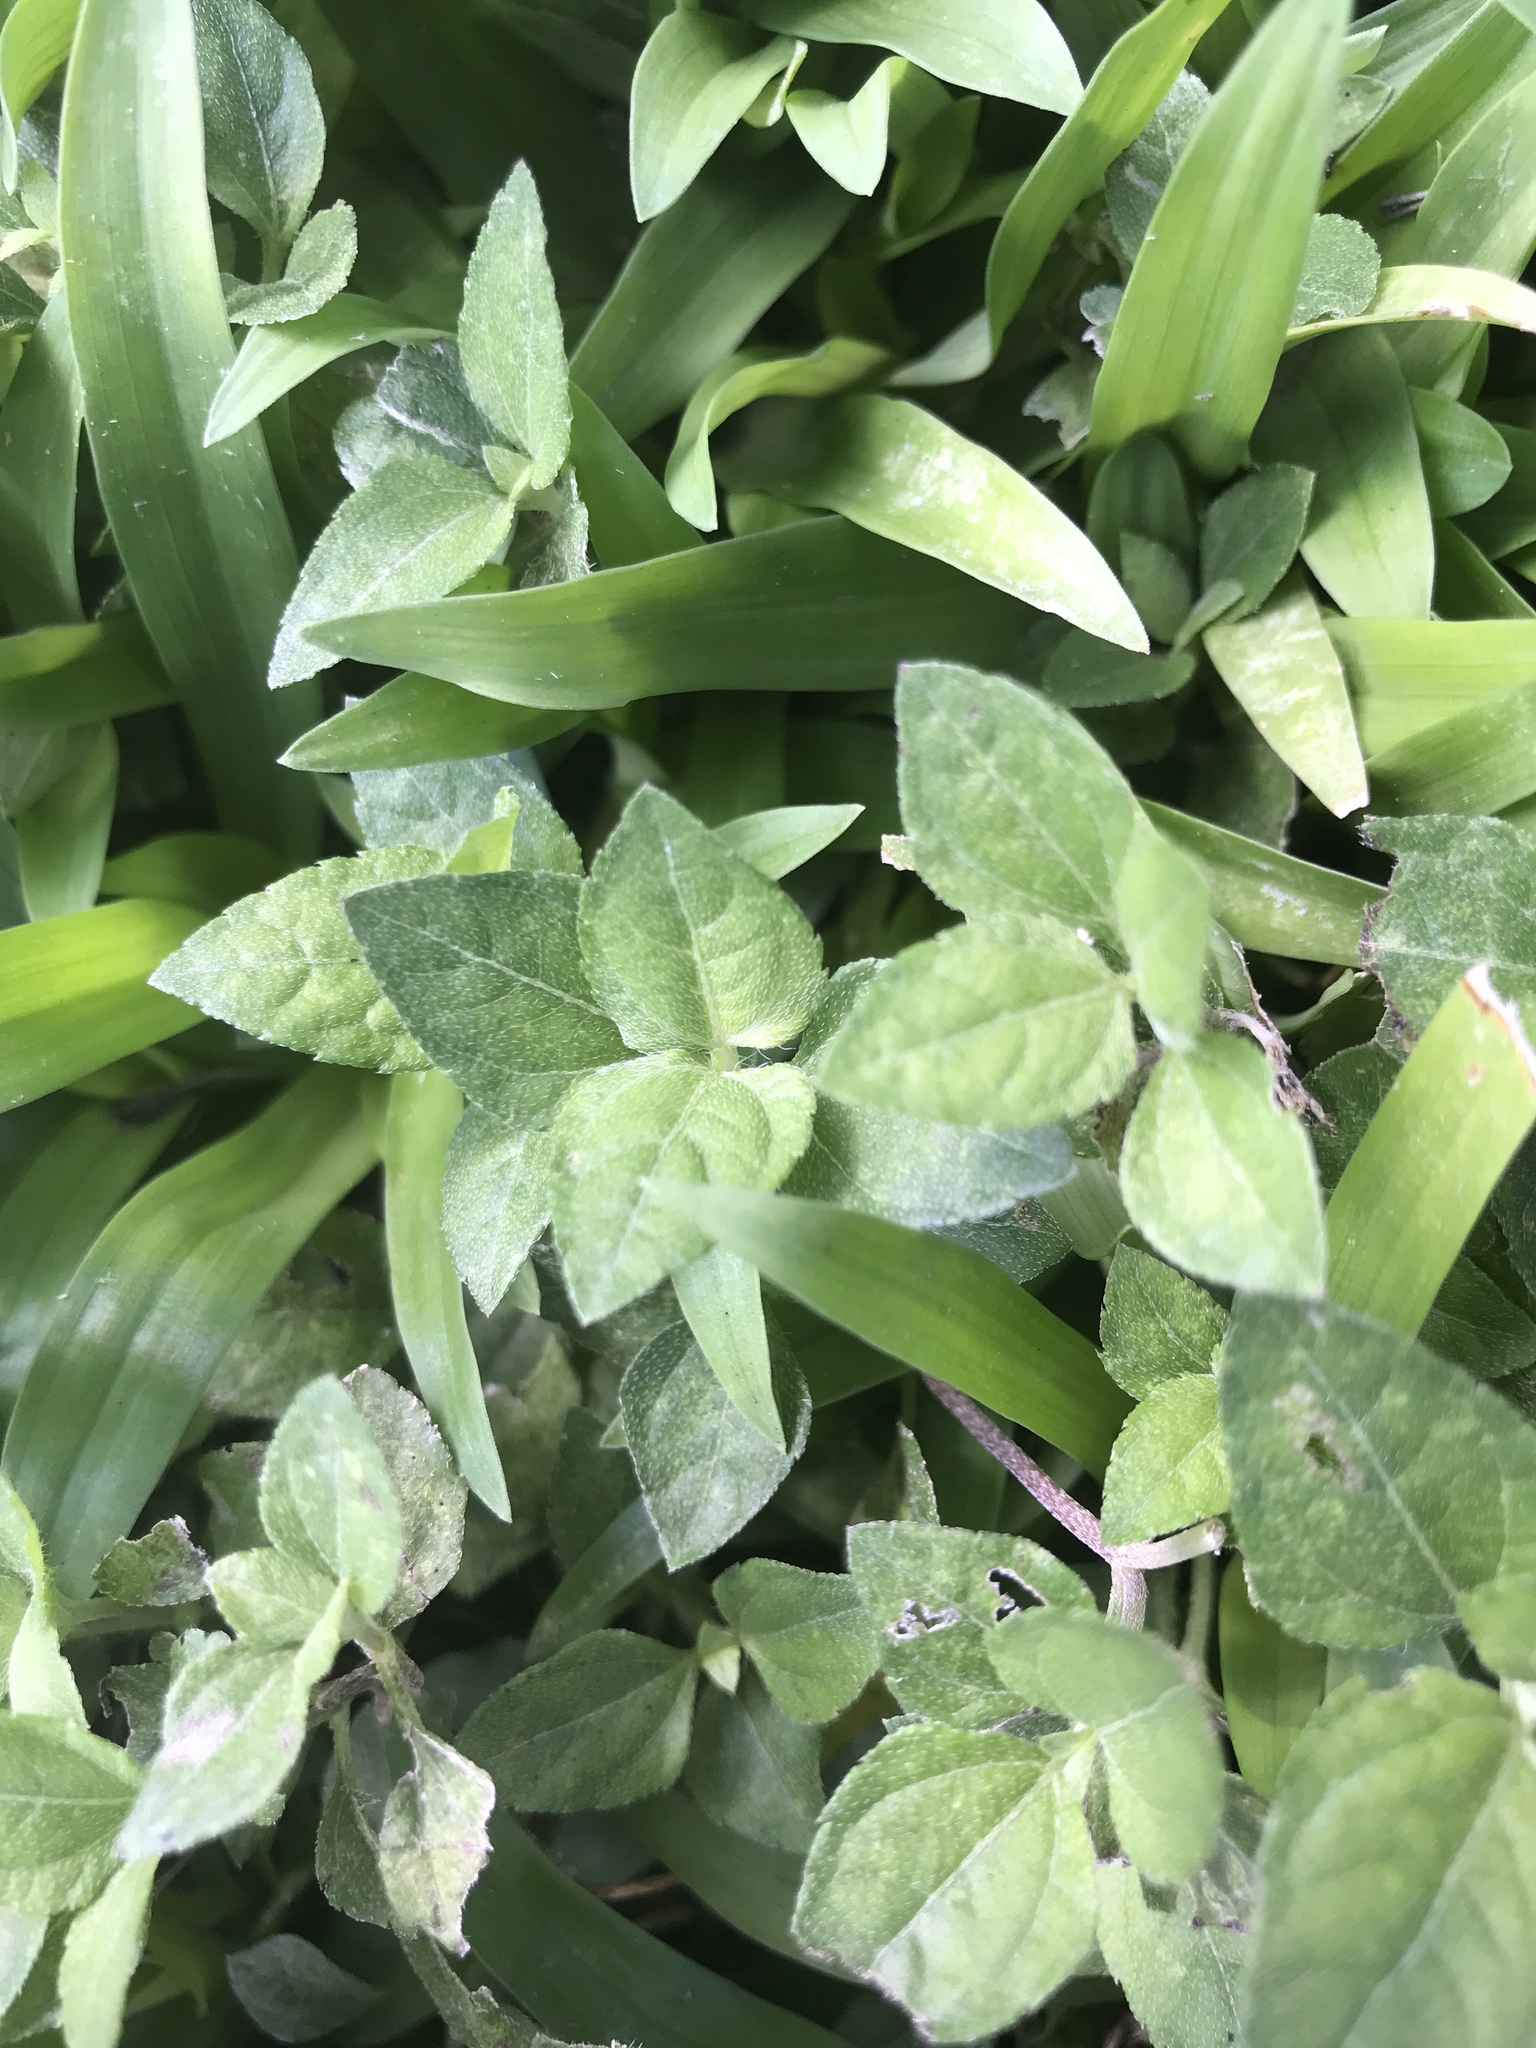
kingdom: Plantae
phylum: Tracheophyta
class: Magnoliopsida
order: Asterales
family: Asteraceae
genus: Calyptocarpus
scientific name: Calyptocarpus vialis
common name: Straggler daisy
